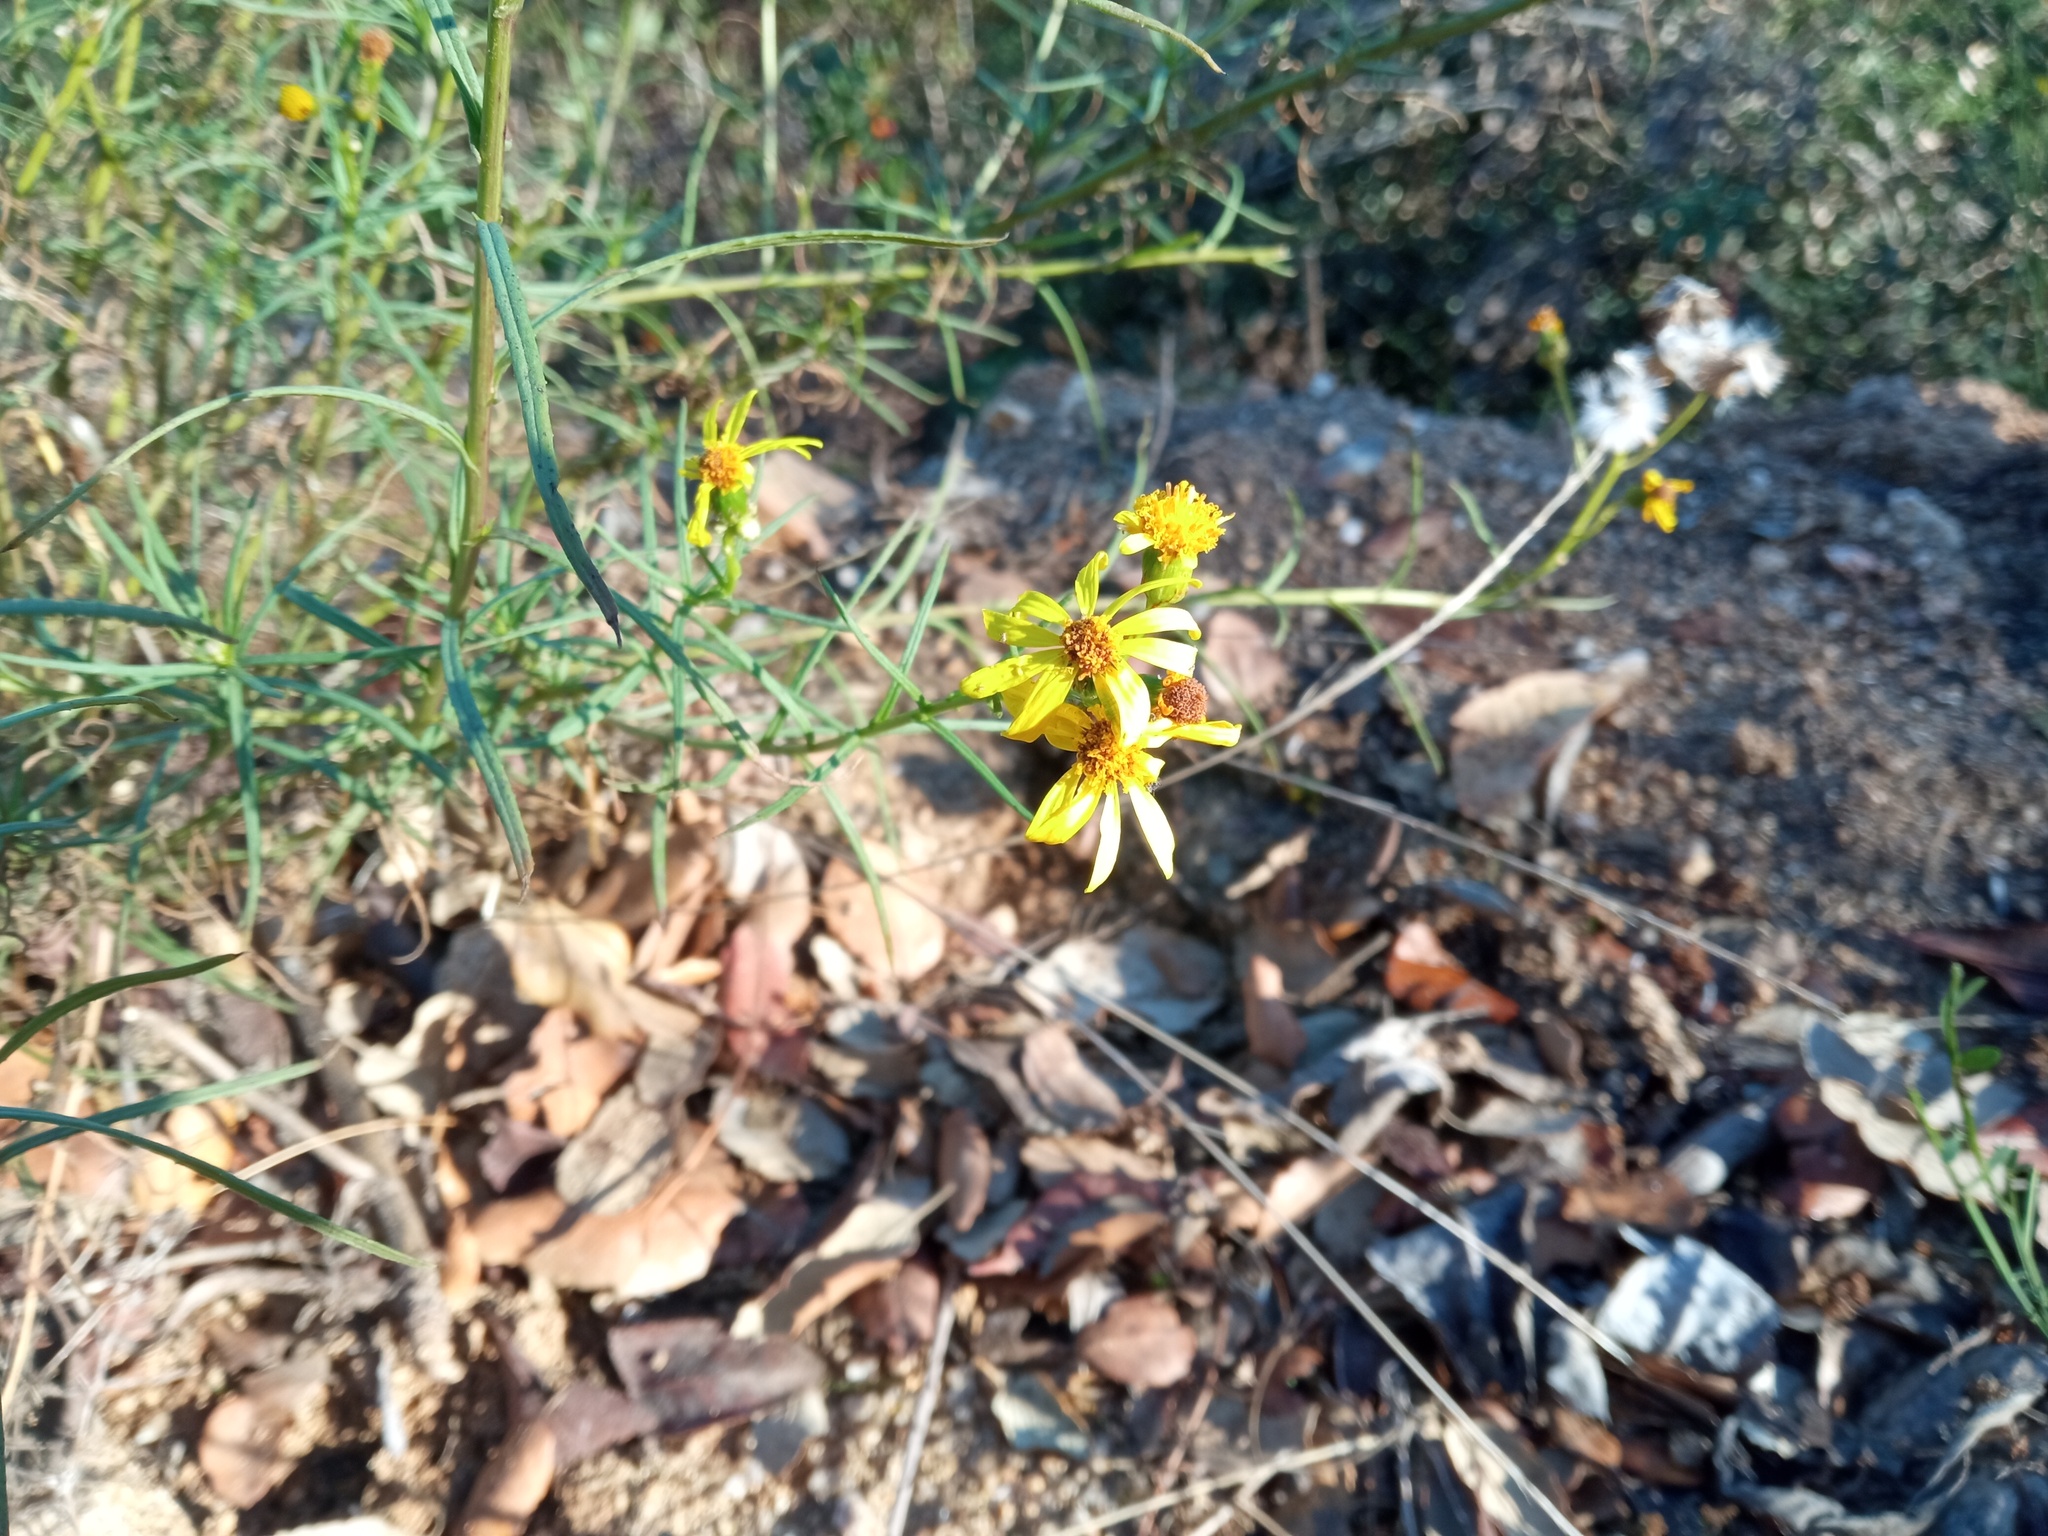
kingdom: Plantae
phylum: Tracheophyta
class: Magnoliopsida
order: Asterales
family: Asteraceae
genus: Senecio
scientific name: Senecio inaequidens
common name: Narrow-leaved ragwort
